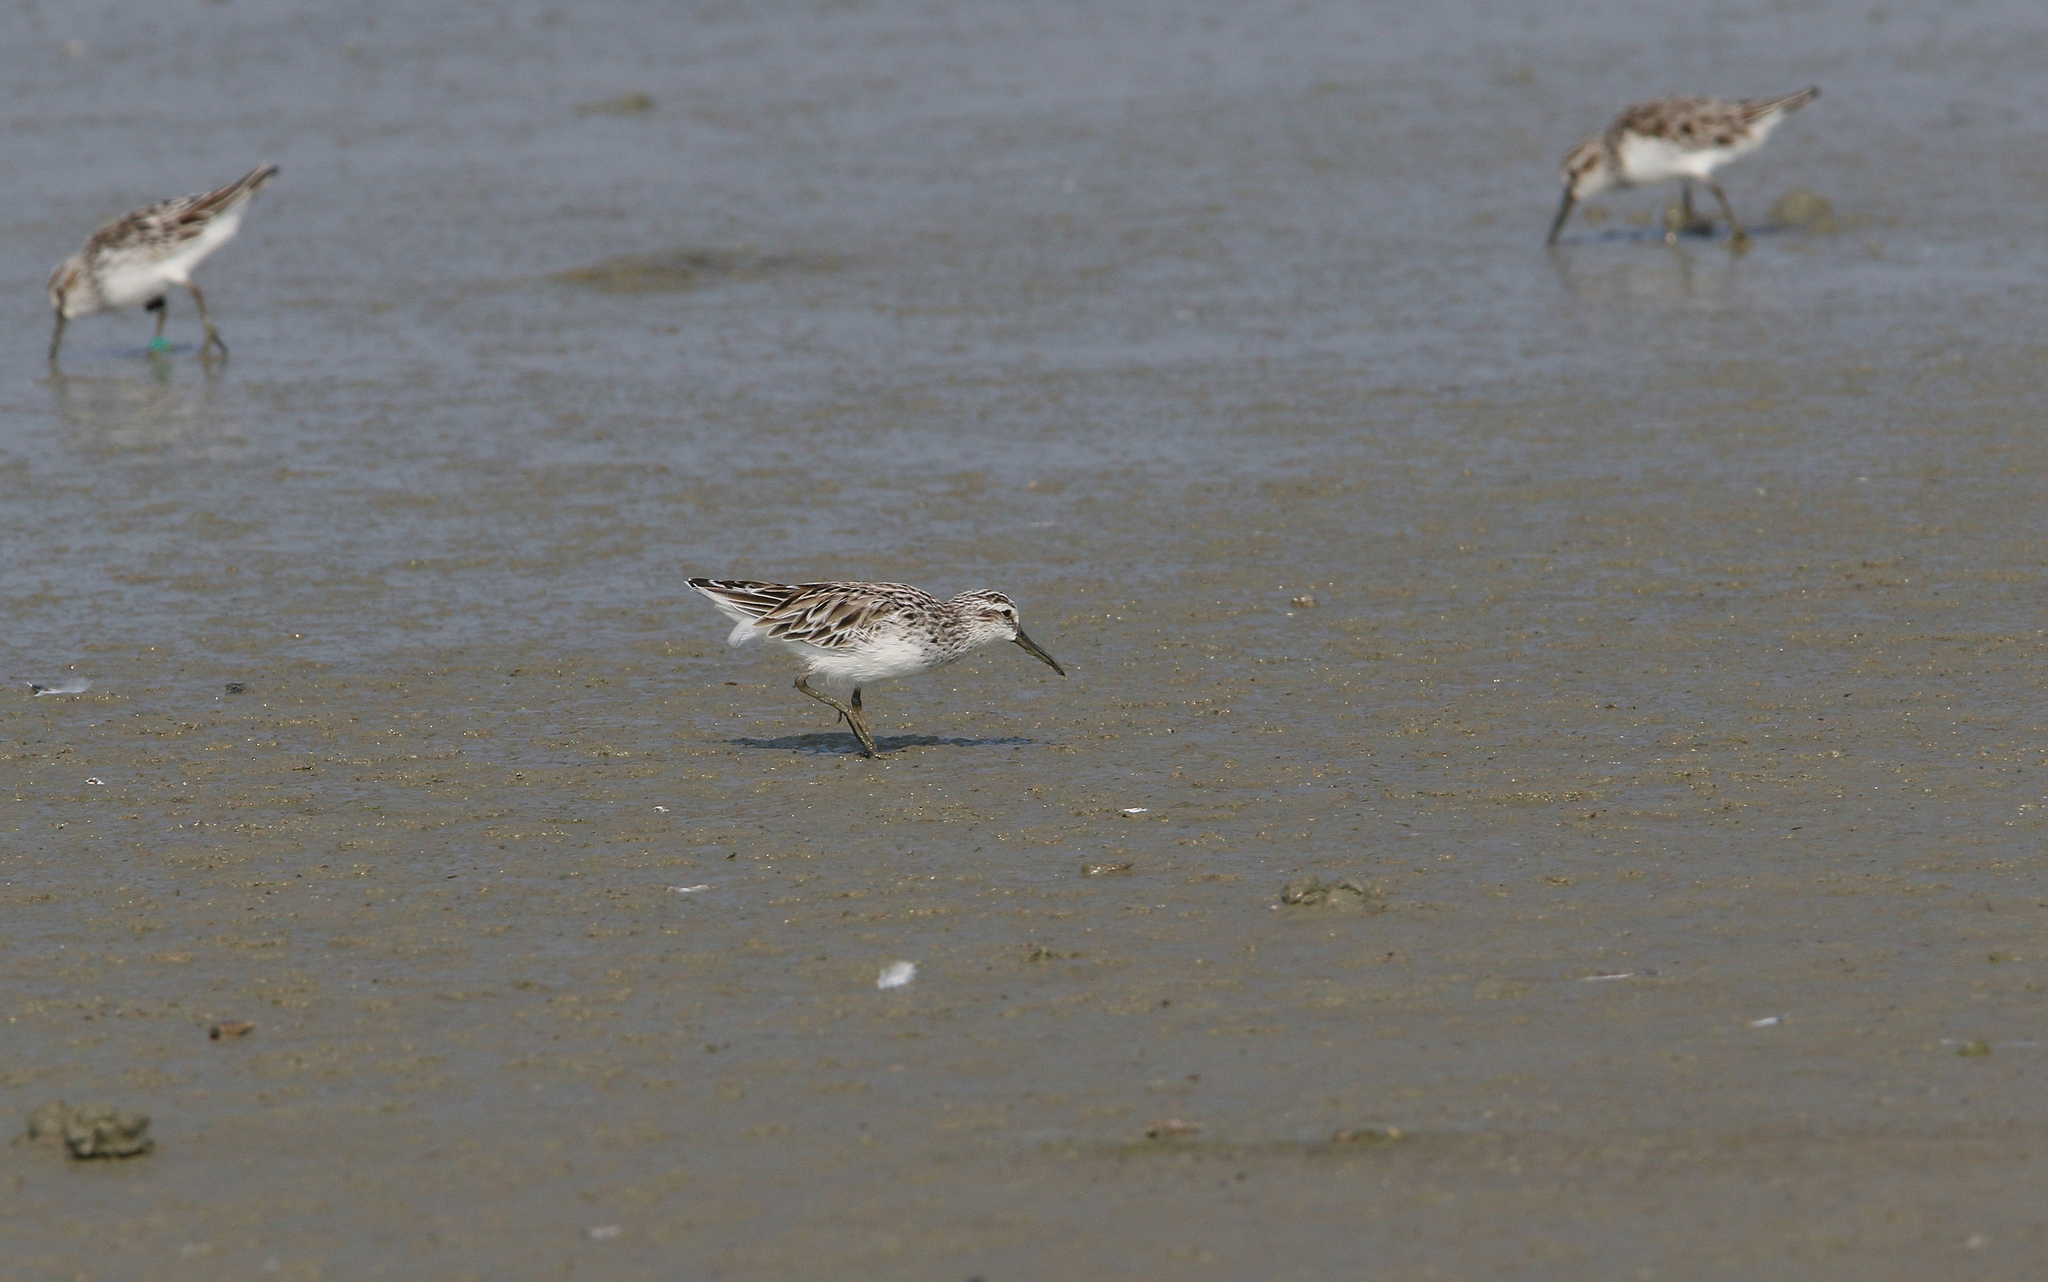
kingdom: Animalia
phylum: Chordata
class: Aves
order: Charadriiformes
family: Scolopacidae
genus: Calidris
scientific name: Calidris falcinellus
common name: Broad-billed sandpiper
